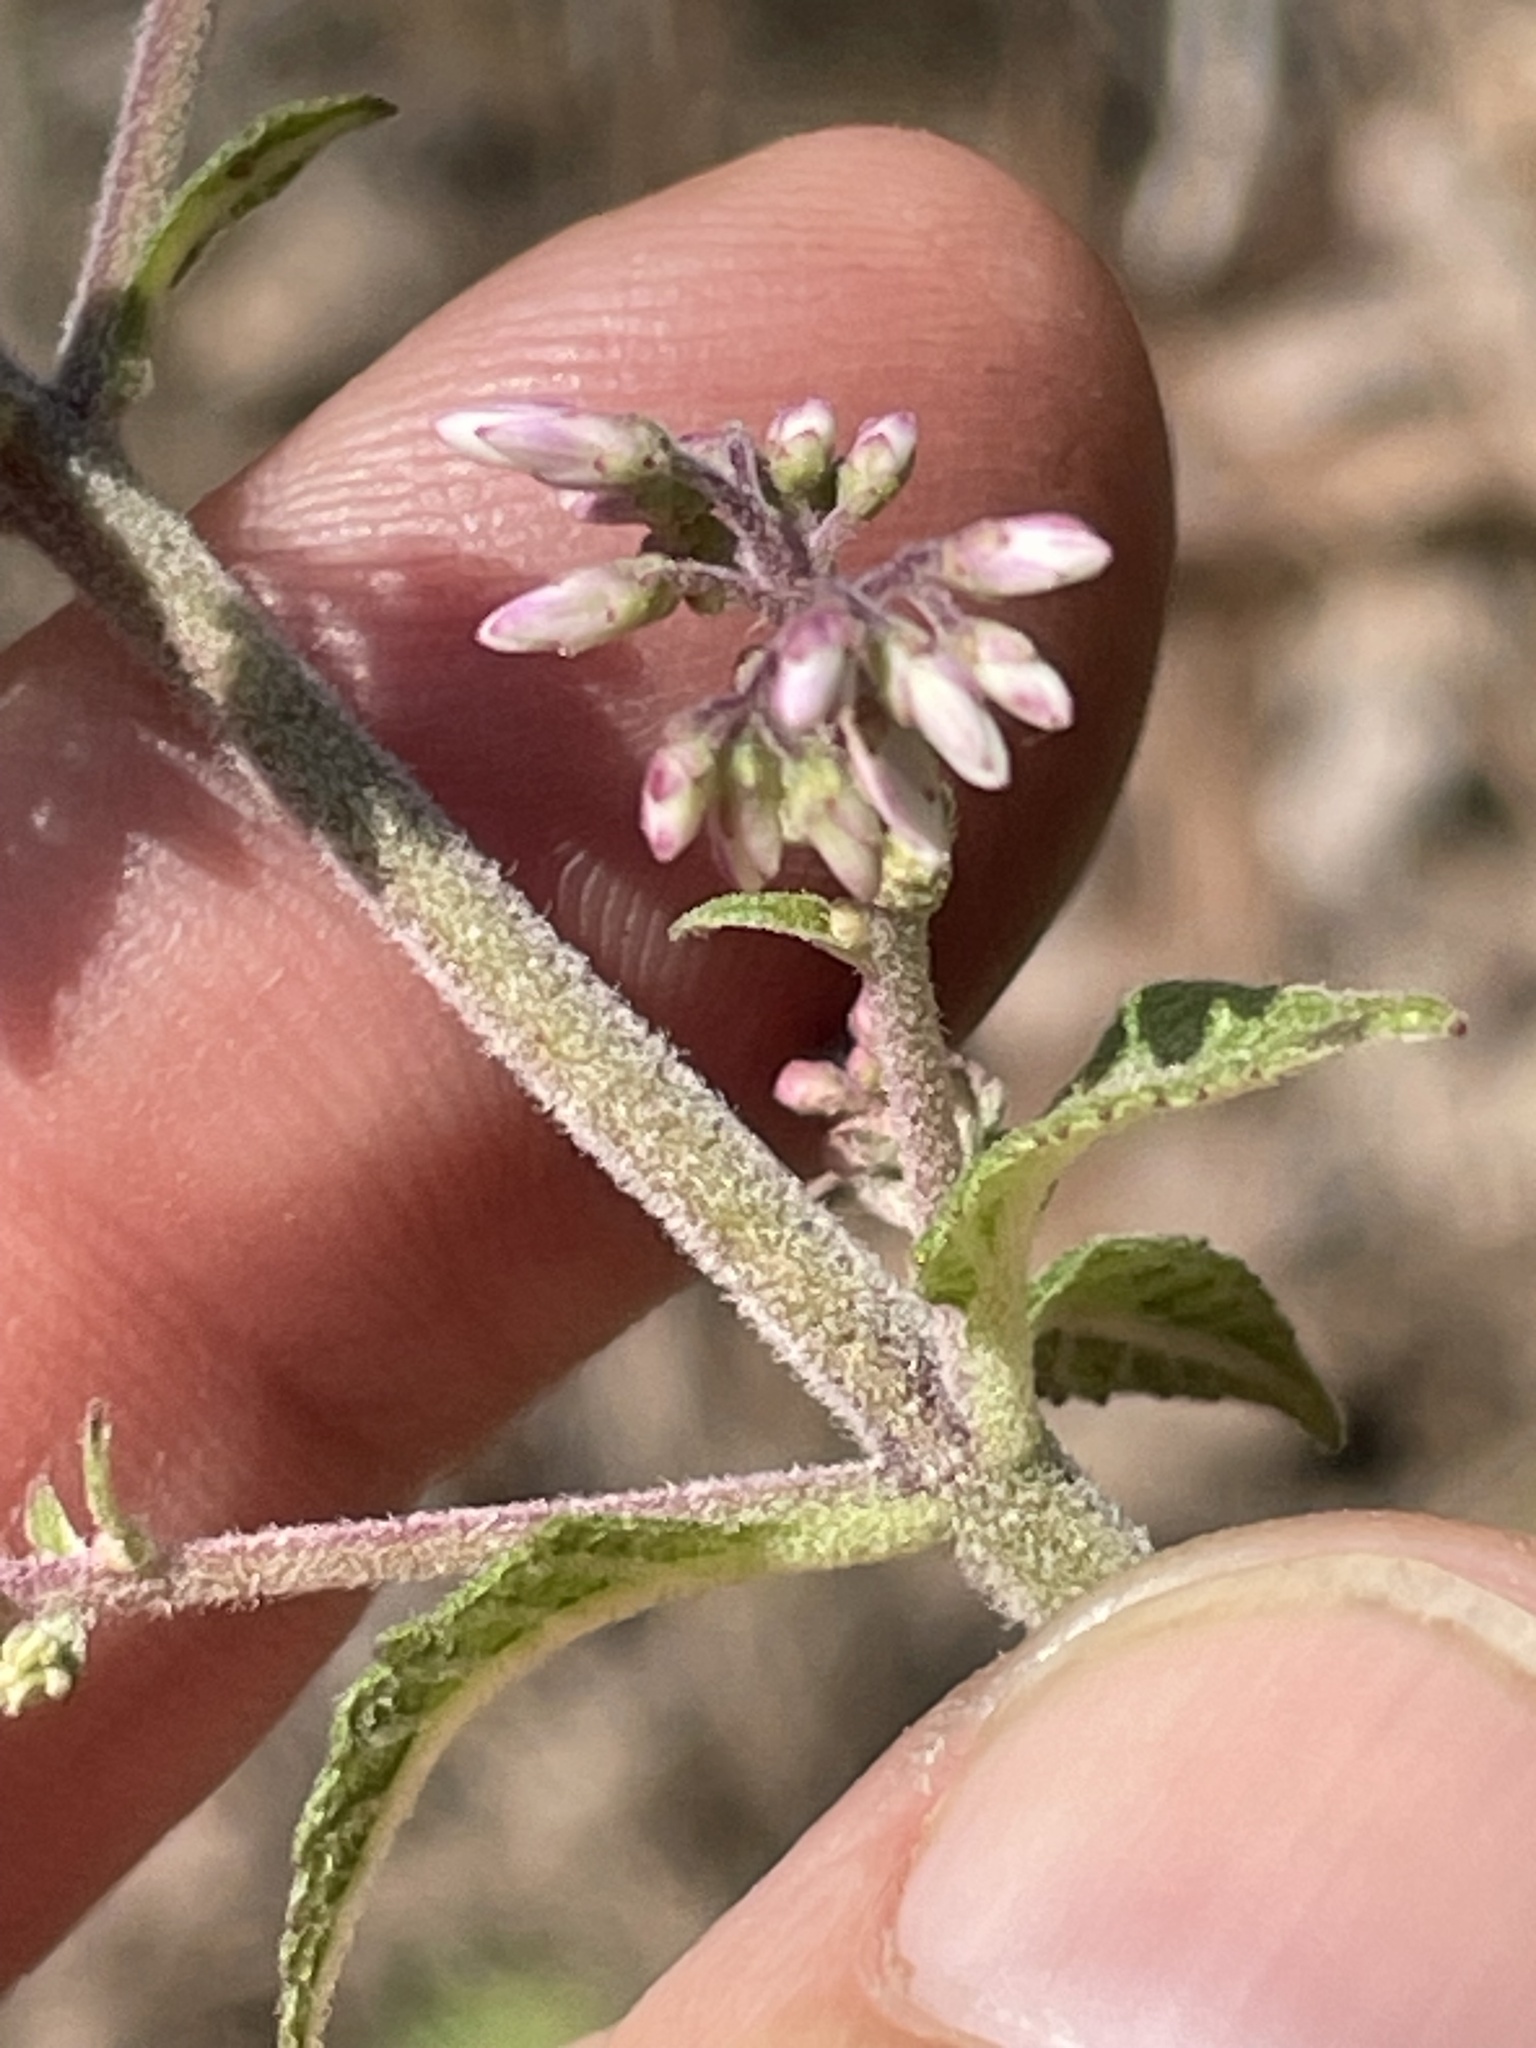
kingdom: Plantae
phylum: Tracheophyta
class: Magnoliopsida
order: Asterales
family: Asteraceae
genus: Eutrochium
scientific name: Eutrochium purpureum
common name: Gravelroot
